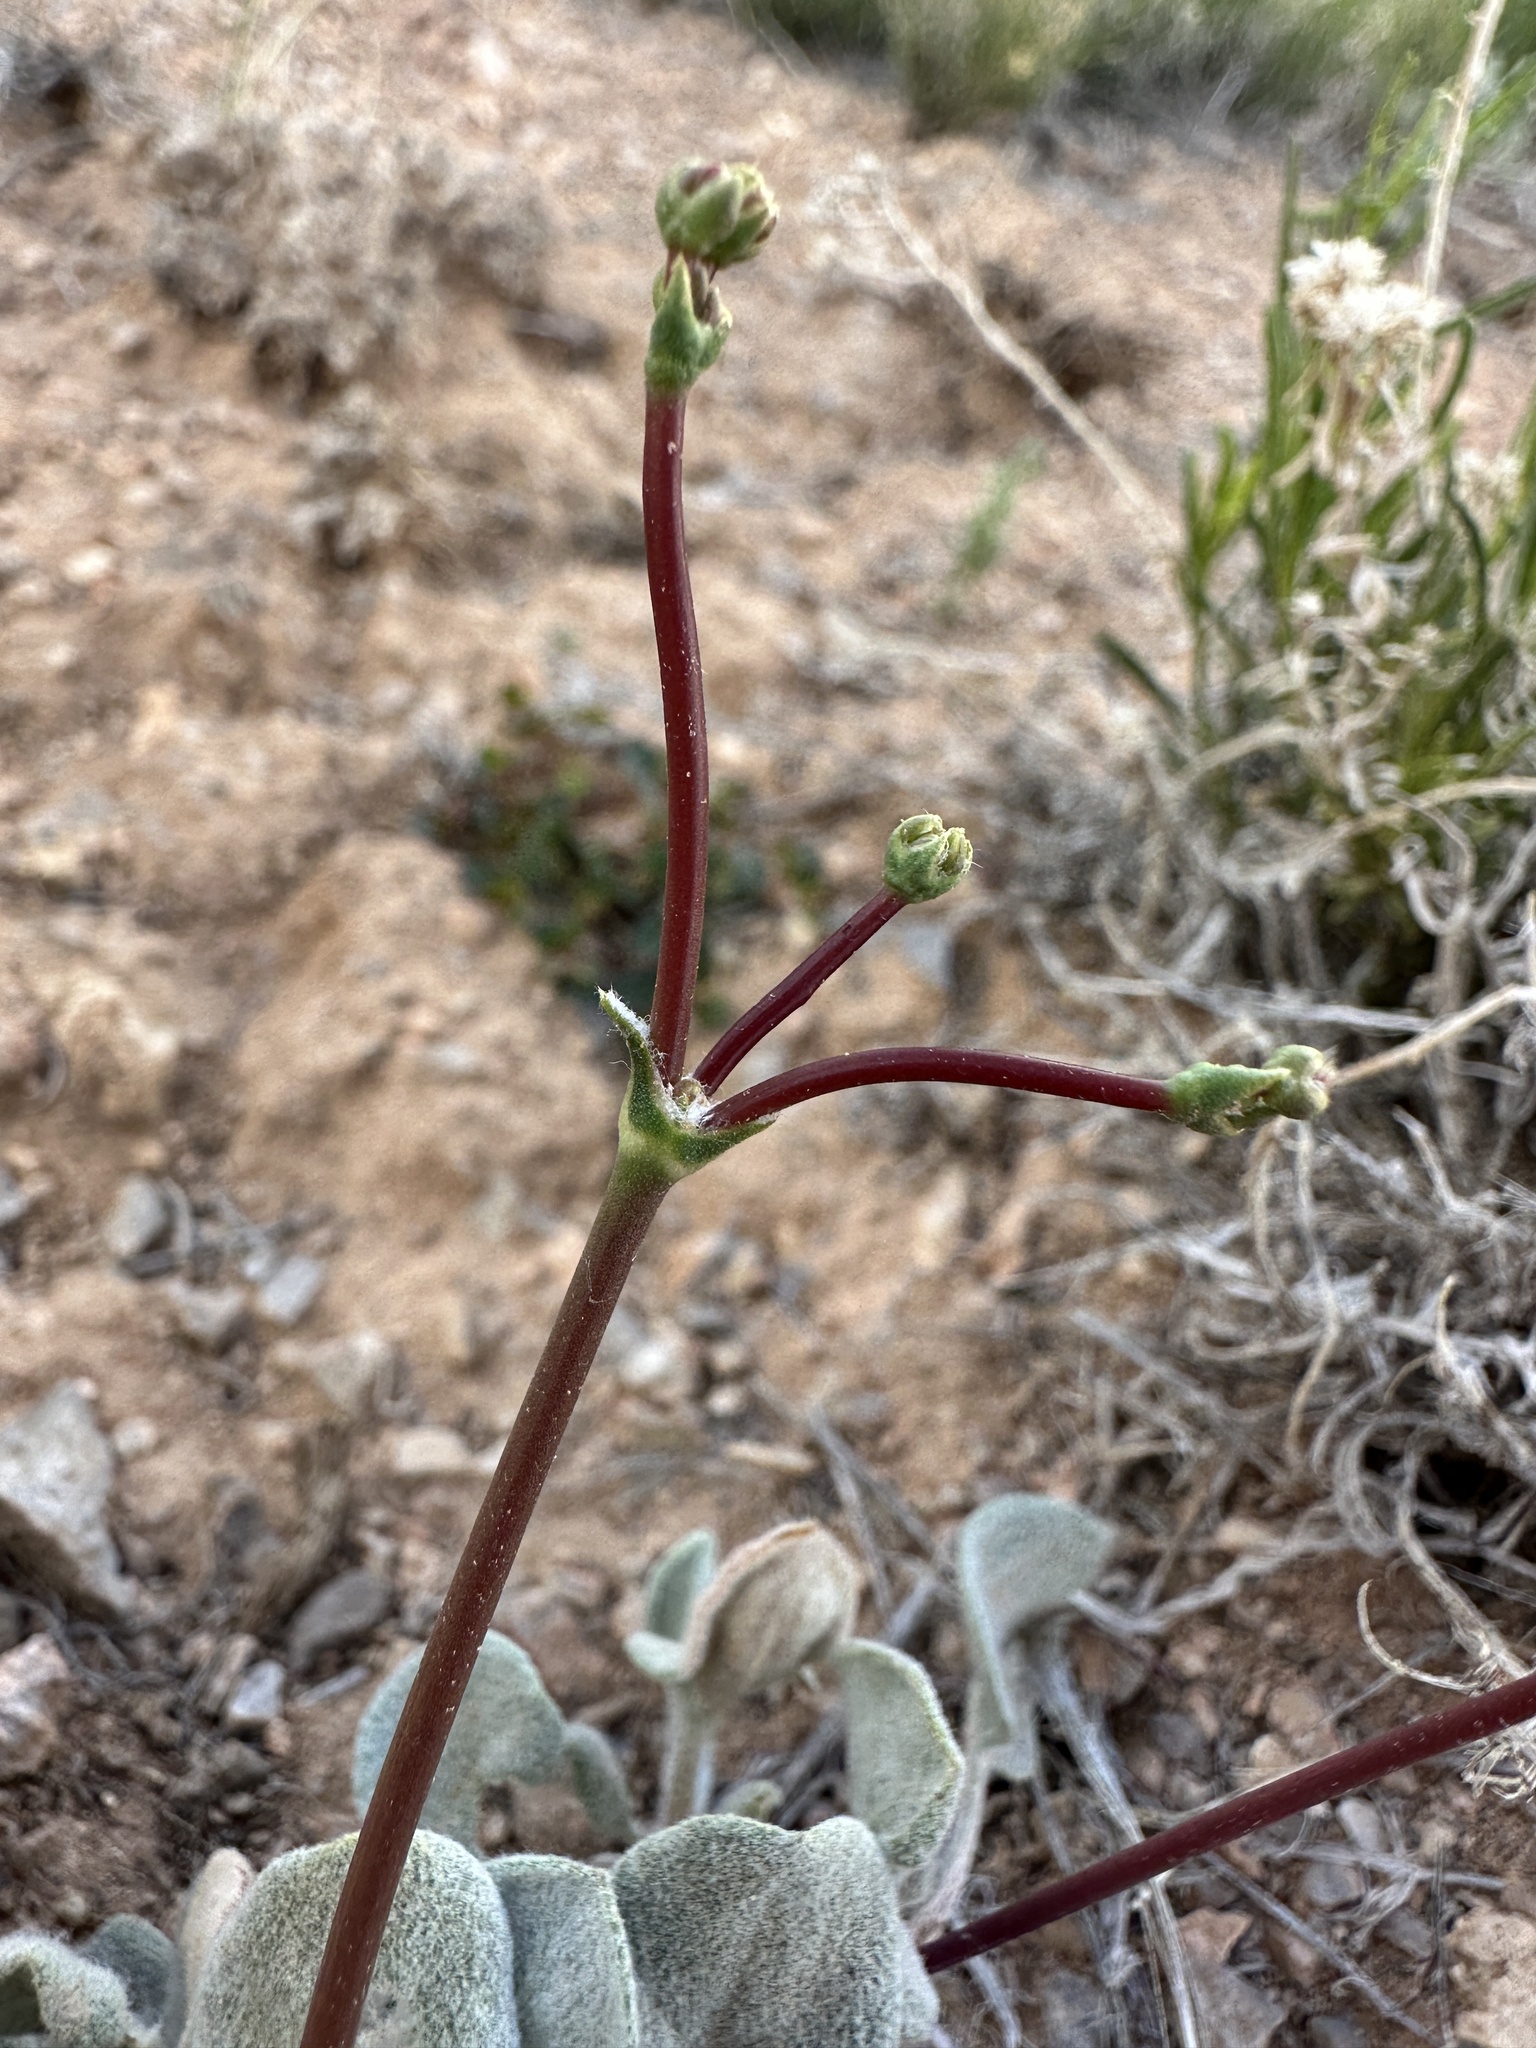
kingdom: Plantae
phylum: Tracheophyta
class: Magnoliopsida
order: Caryophyllales
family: Polygonaceae
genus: Eriogonum
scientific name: Eriogonum eremicum
